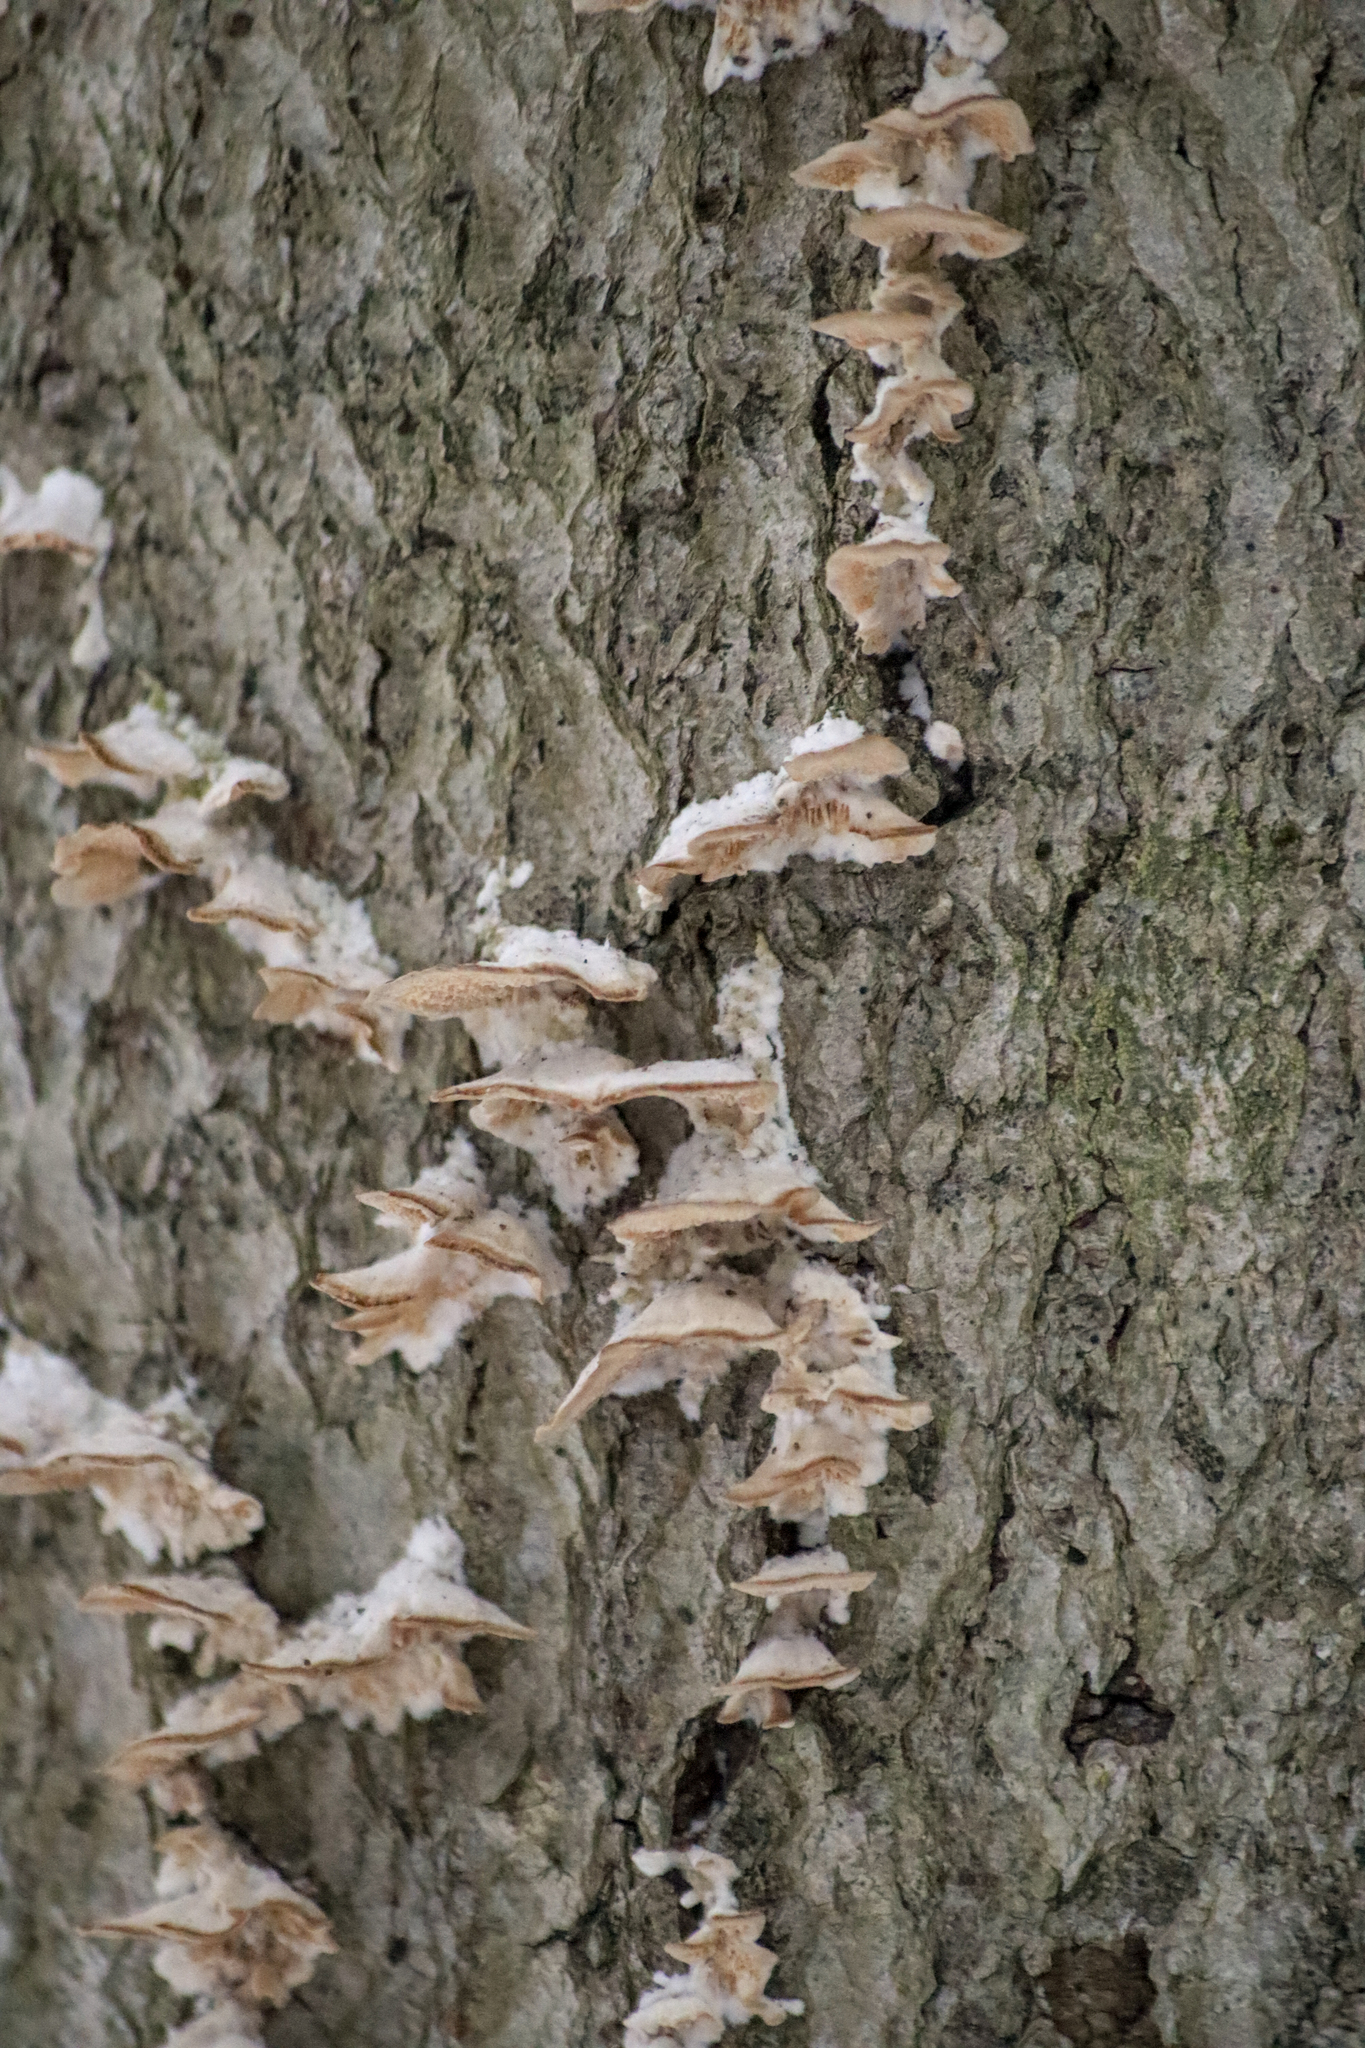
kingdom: Fungi
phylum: Basidiomycota
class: Agaricomycetes
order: Hymenochaetales
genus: Trichaptum
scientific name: Trichaptum subchartaceum
